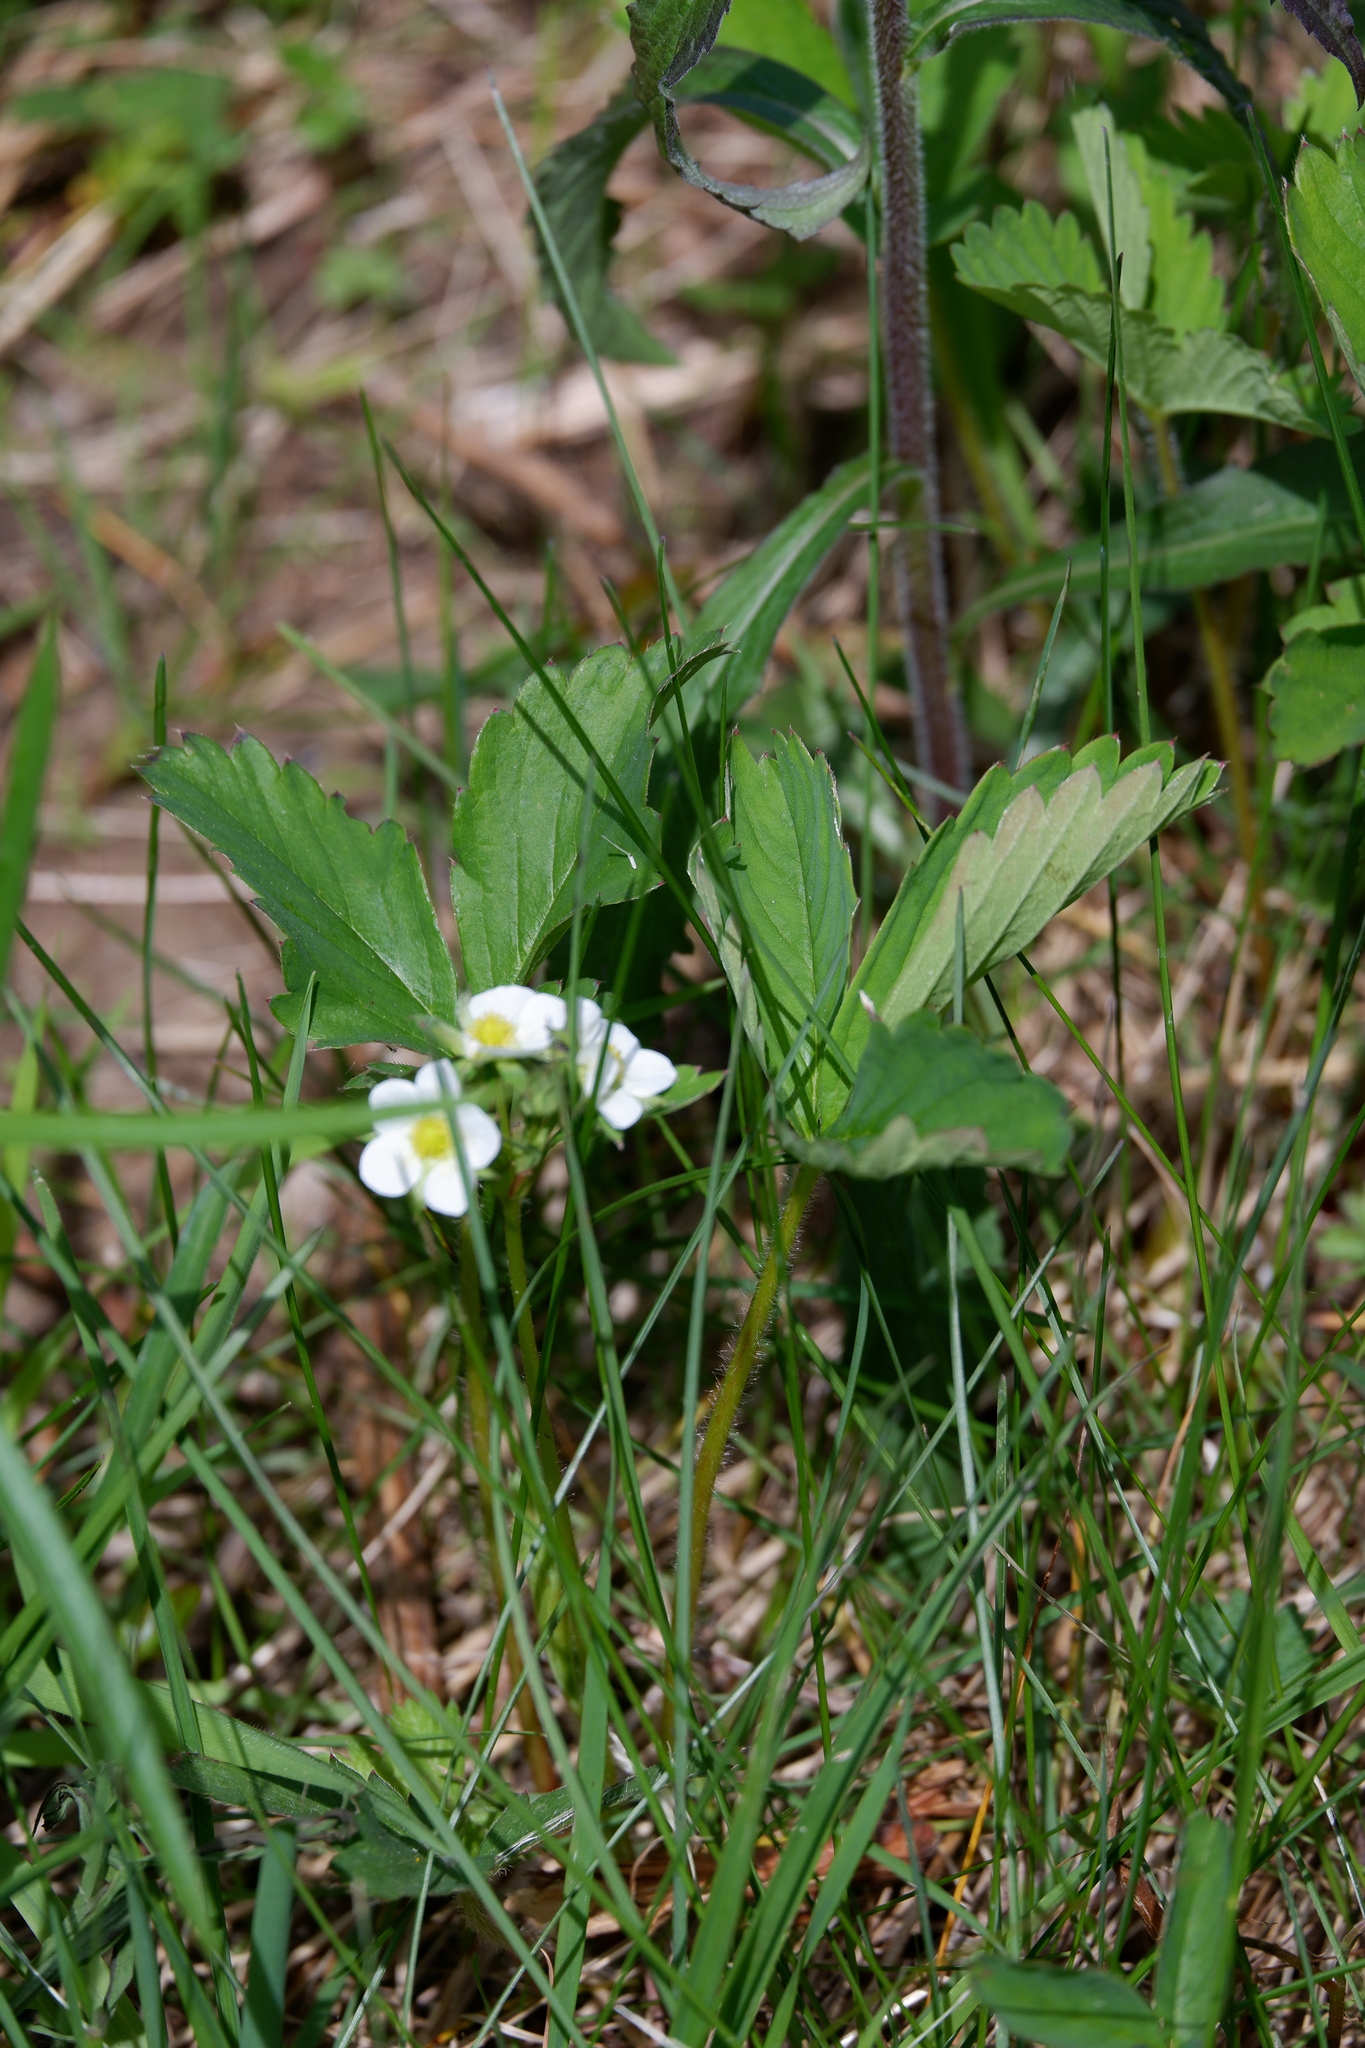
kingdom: Plantae
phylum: Tracheophyta
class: Magnoliopsida
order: Rosales
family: Rosaceae
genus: Fragaria
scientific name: Fragaria virginiana
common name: Thickleaved wild strawberry
